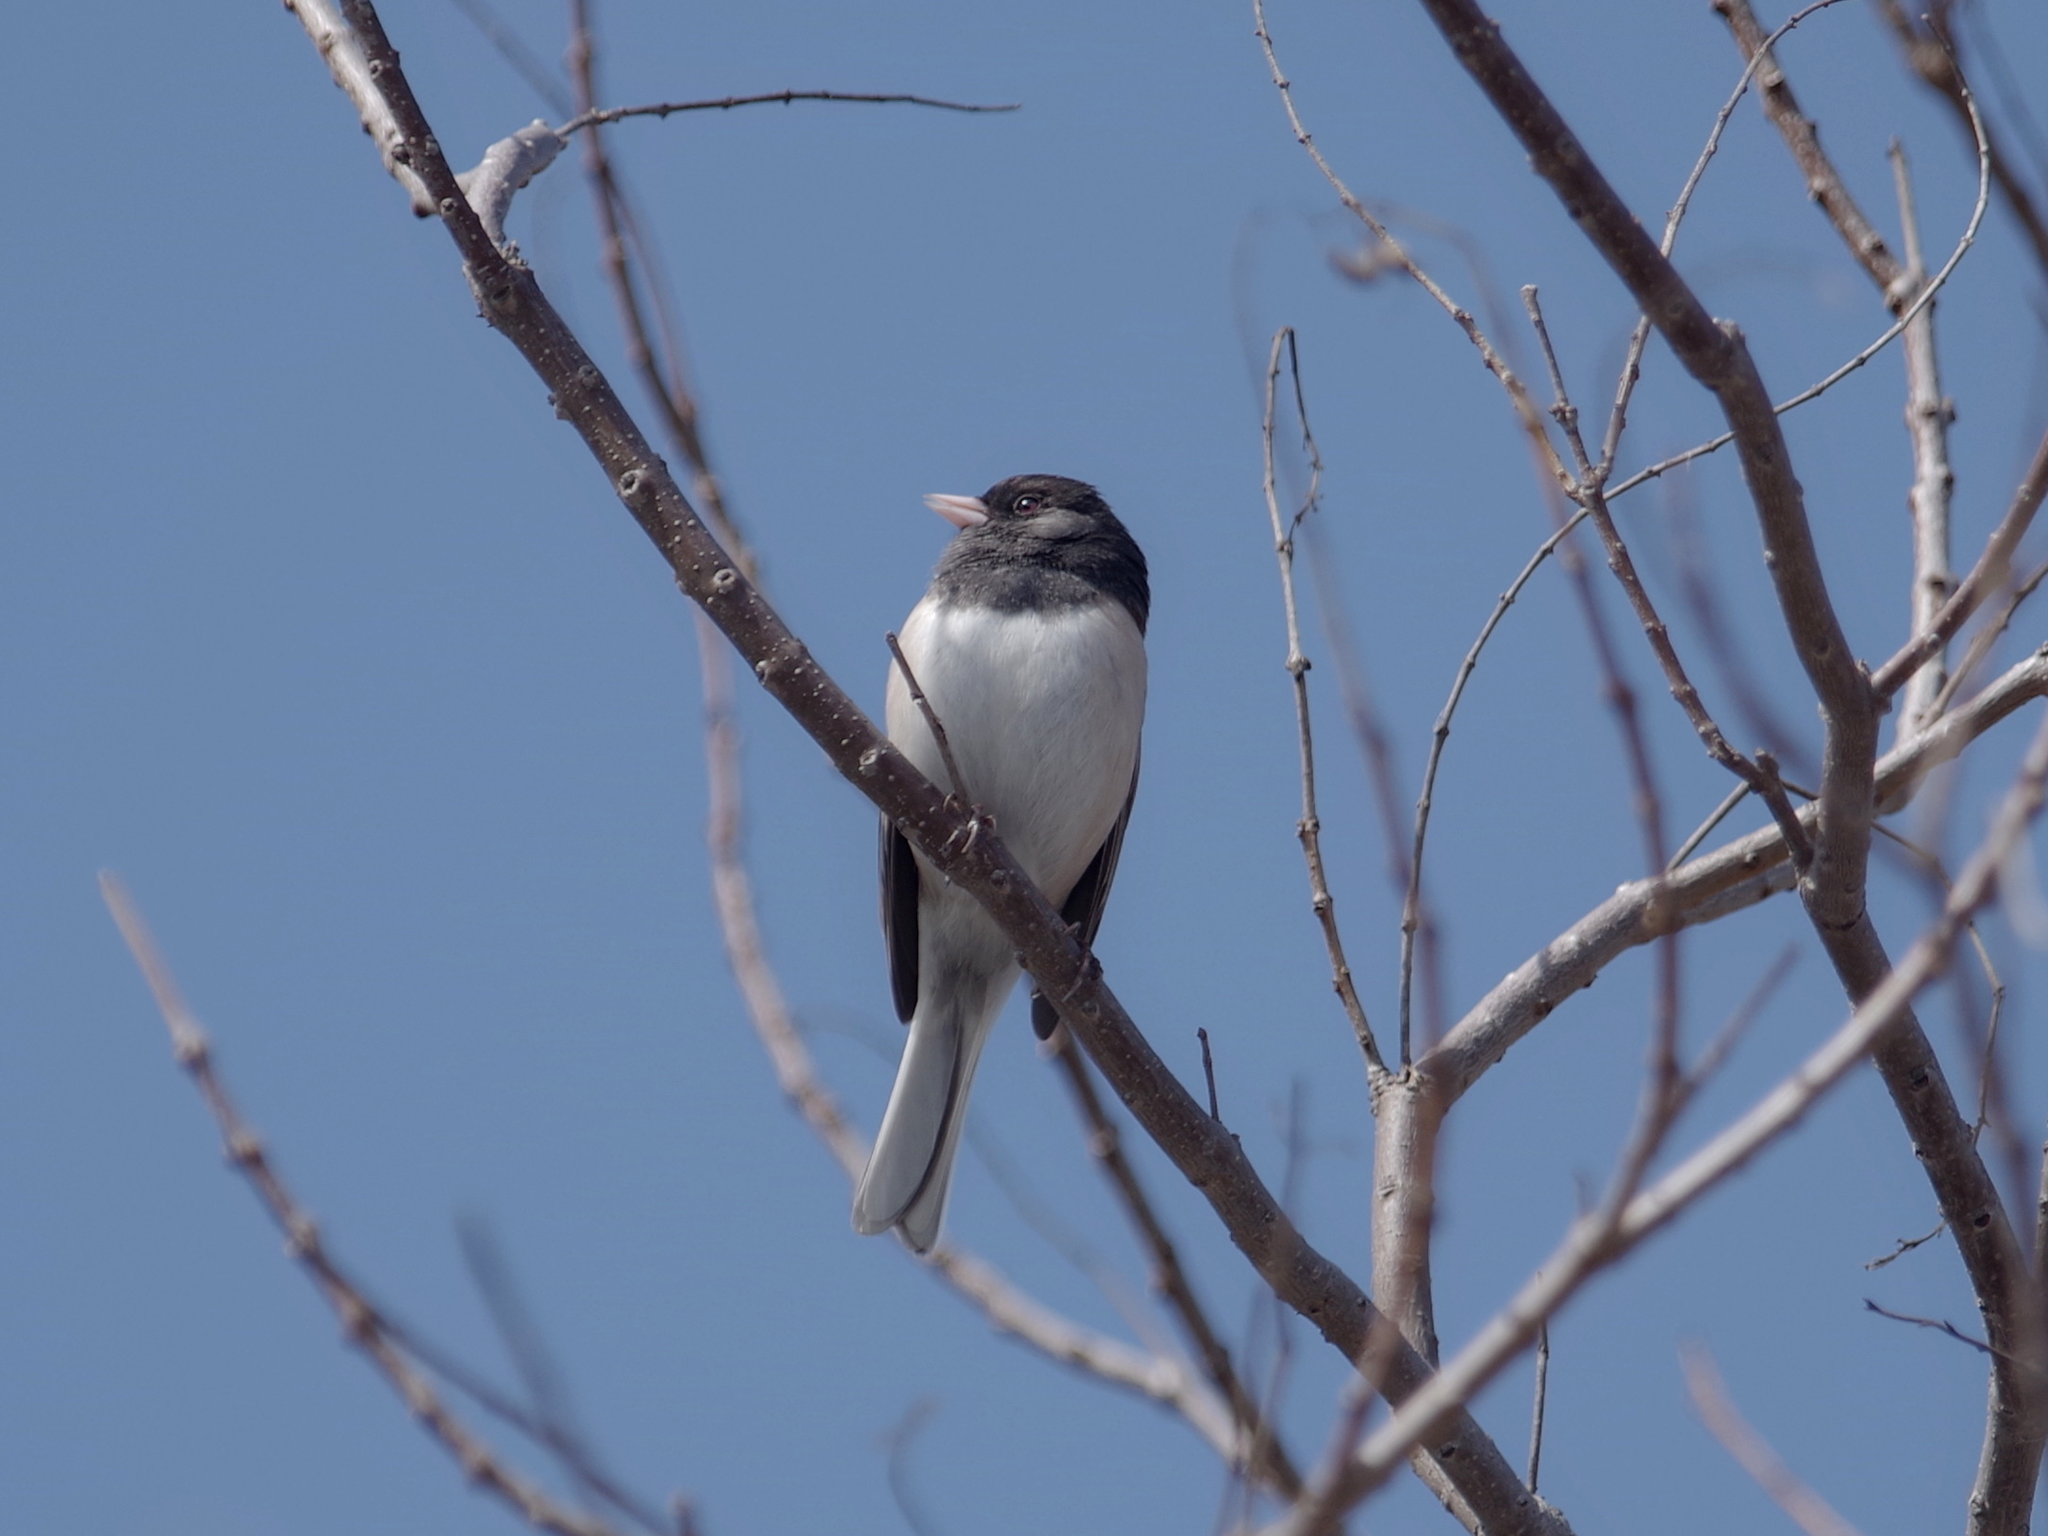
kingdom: Animalia
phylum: Chordata
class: Aves
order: Passeriformes
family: Passerellidae
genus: Junco
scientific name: Junco hyemalis
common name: Dark-eyed junco
